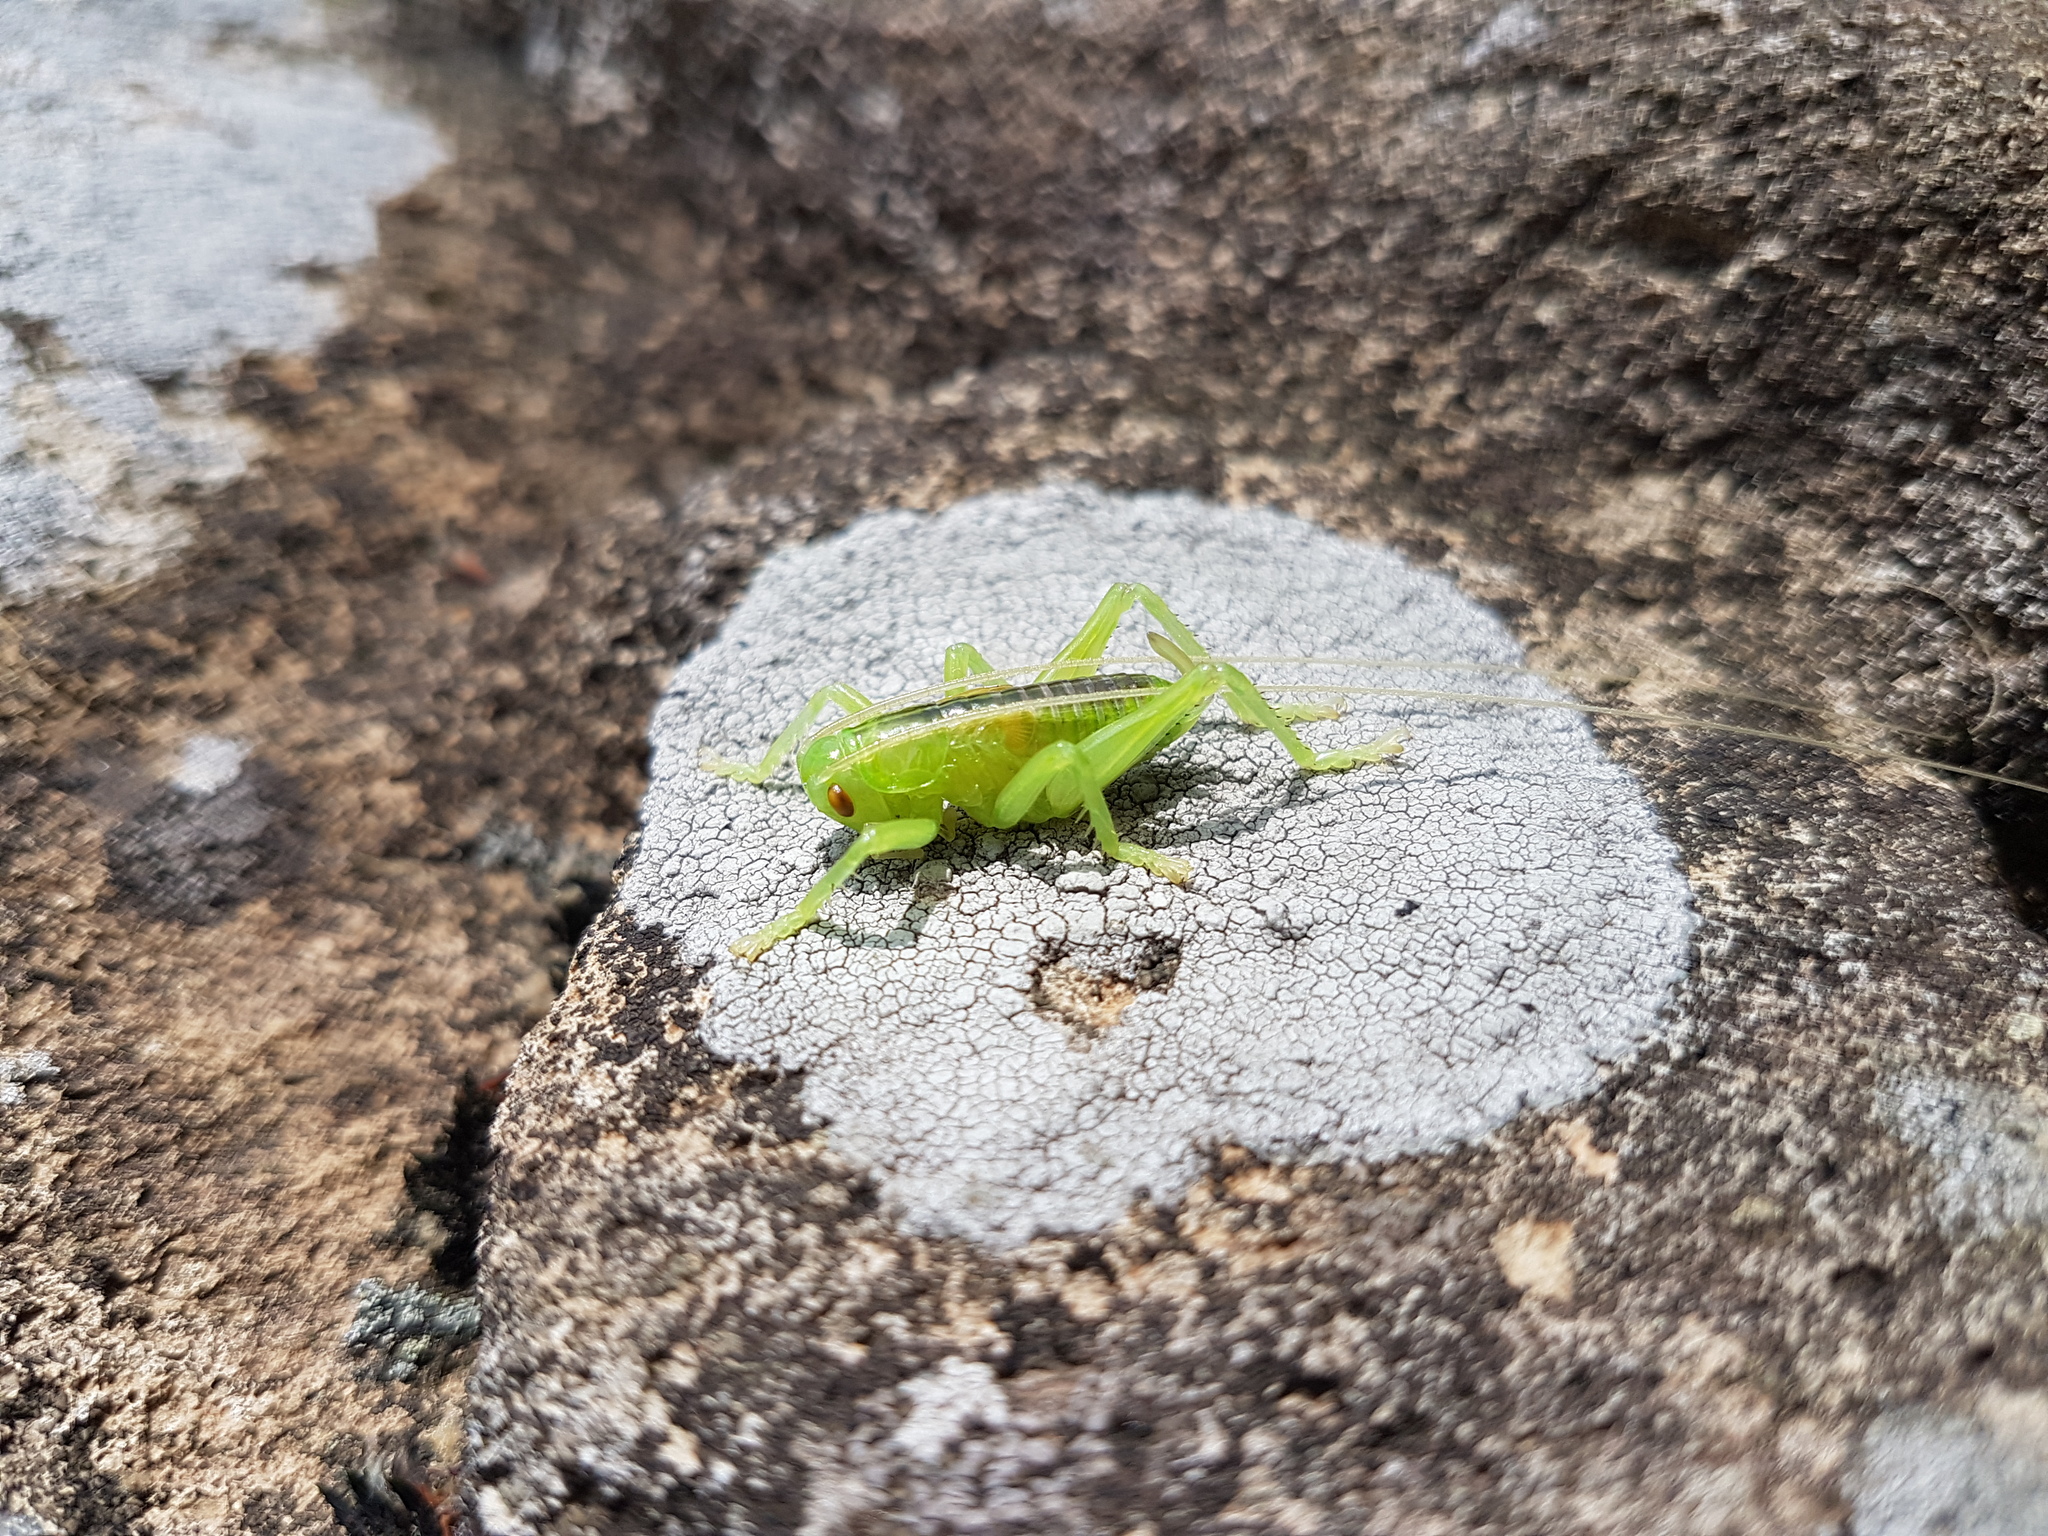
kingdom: Animalia
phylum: Arthropoda
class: Insecta
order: Orthoptera
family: Gryllacrididae
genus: Eugryllacris
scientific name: Eugryllacris japonica
